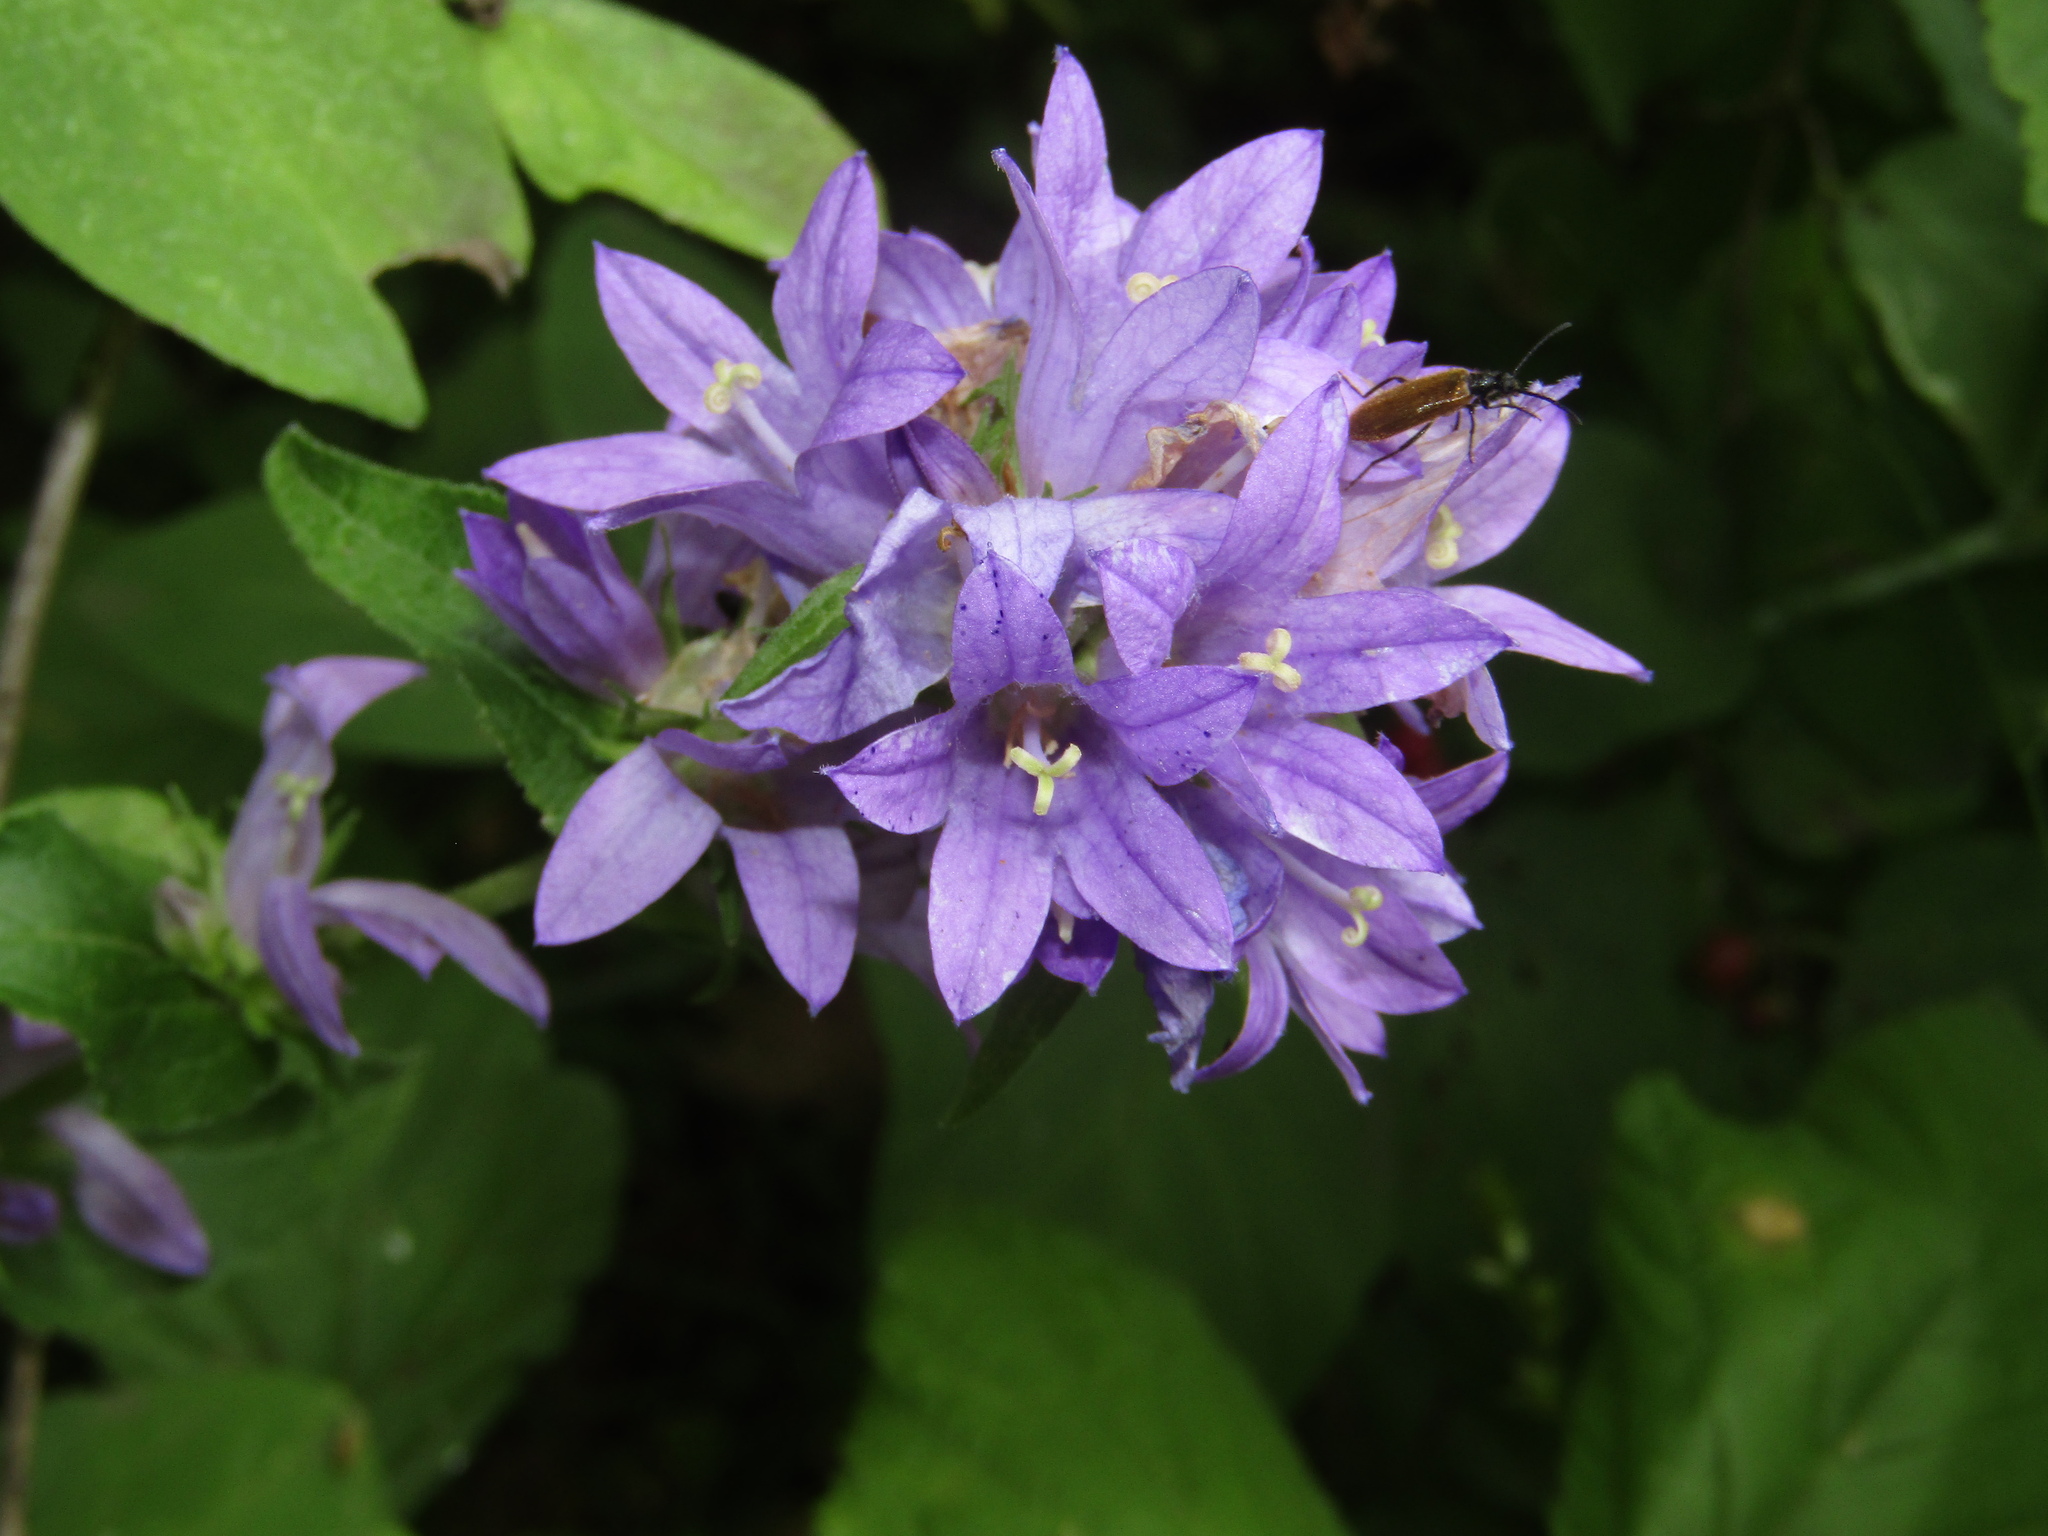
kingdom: Plantae
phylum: Tracheophyta
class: Magnoliopsida
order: Asterales
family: Campanulaceae
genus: Campanula
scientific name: Campanula glomerata
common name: Clustered bellflower
